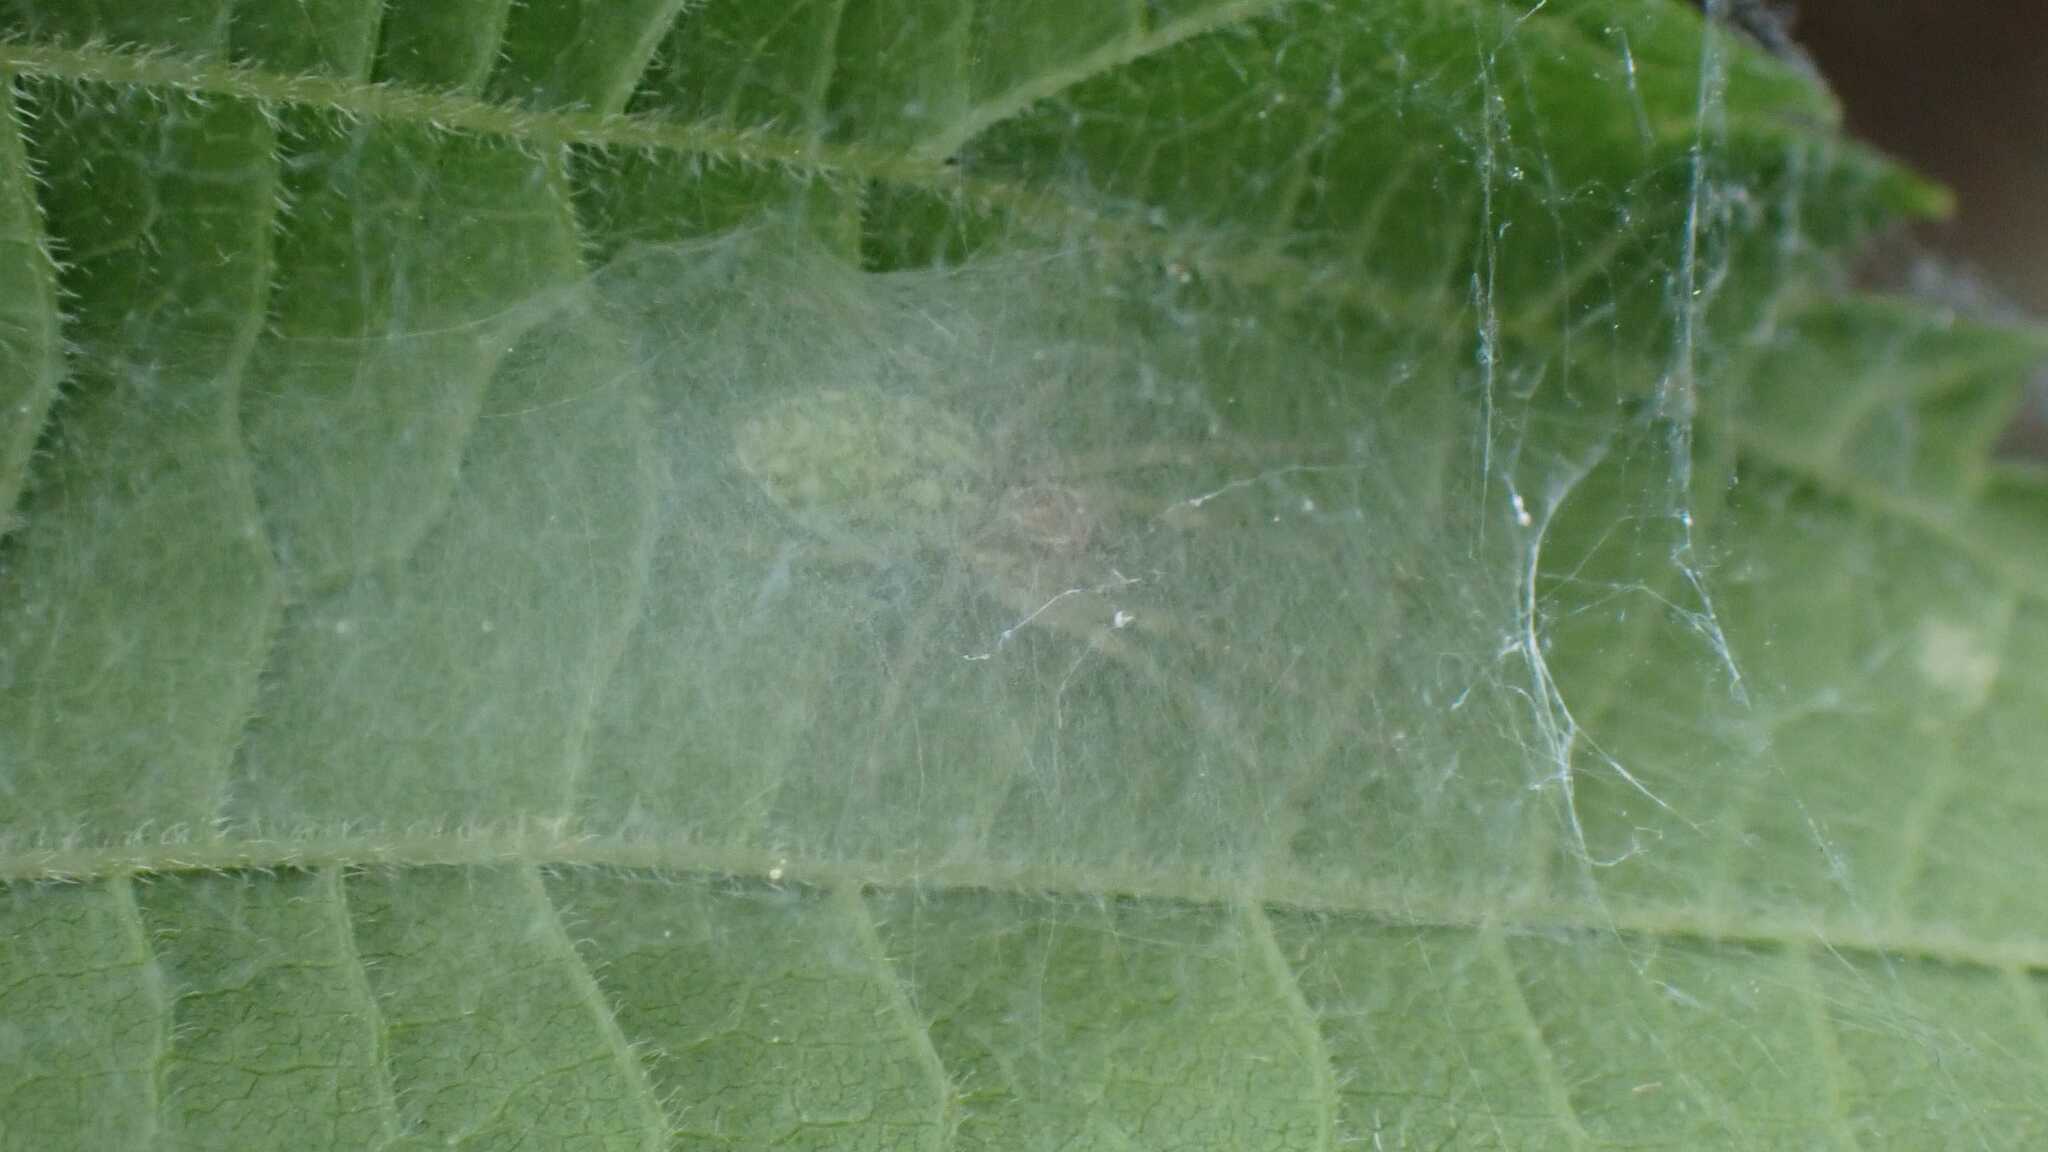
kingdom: Animalia
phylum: Arthropoda
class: Arachnida
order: Araneae
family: Dictynidae
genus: Nigma
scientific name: Nigma walckenaeri
